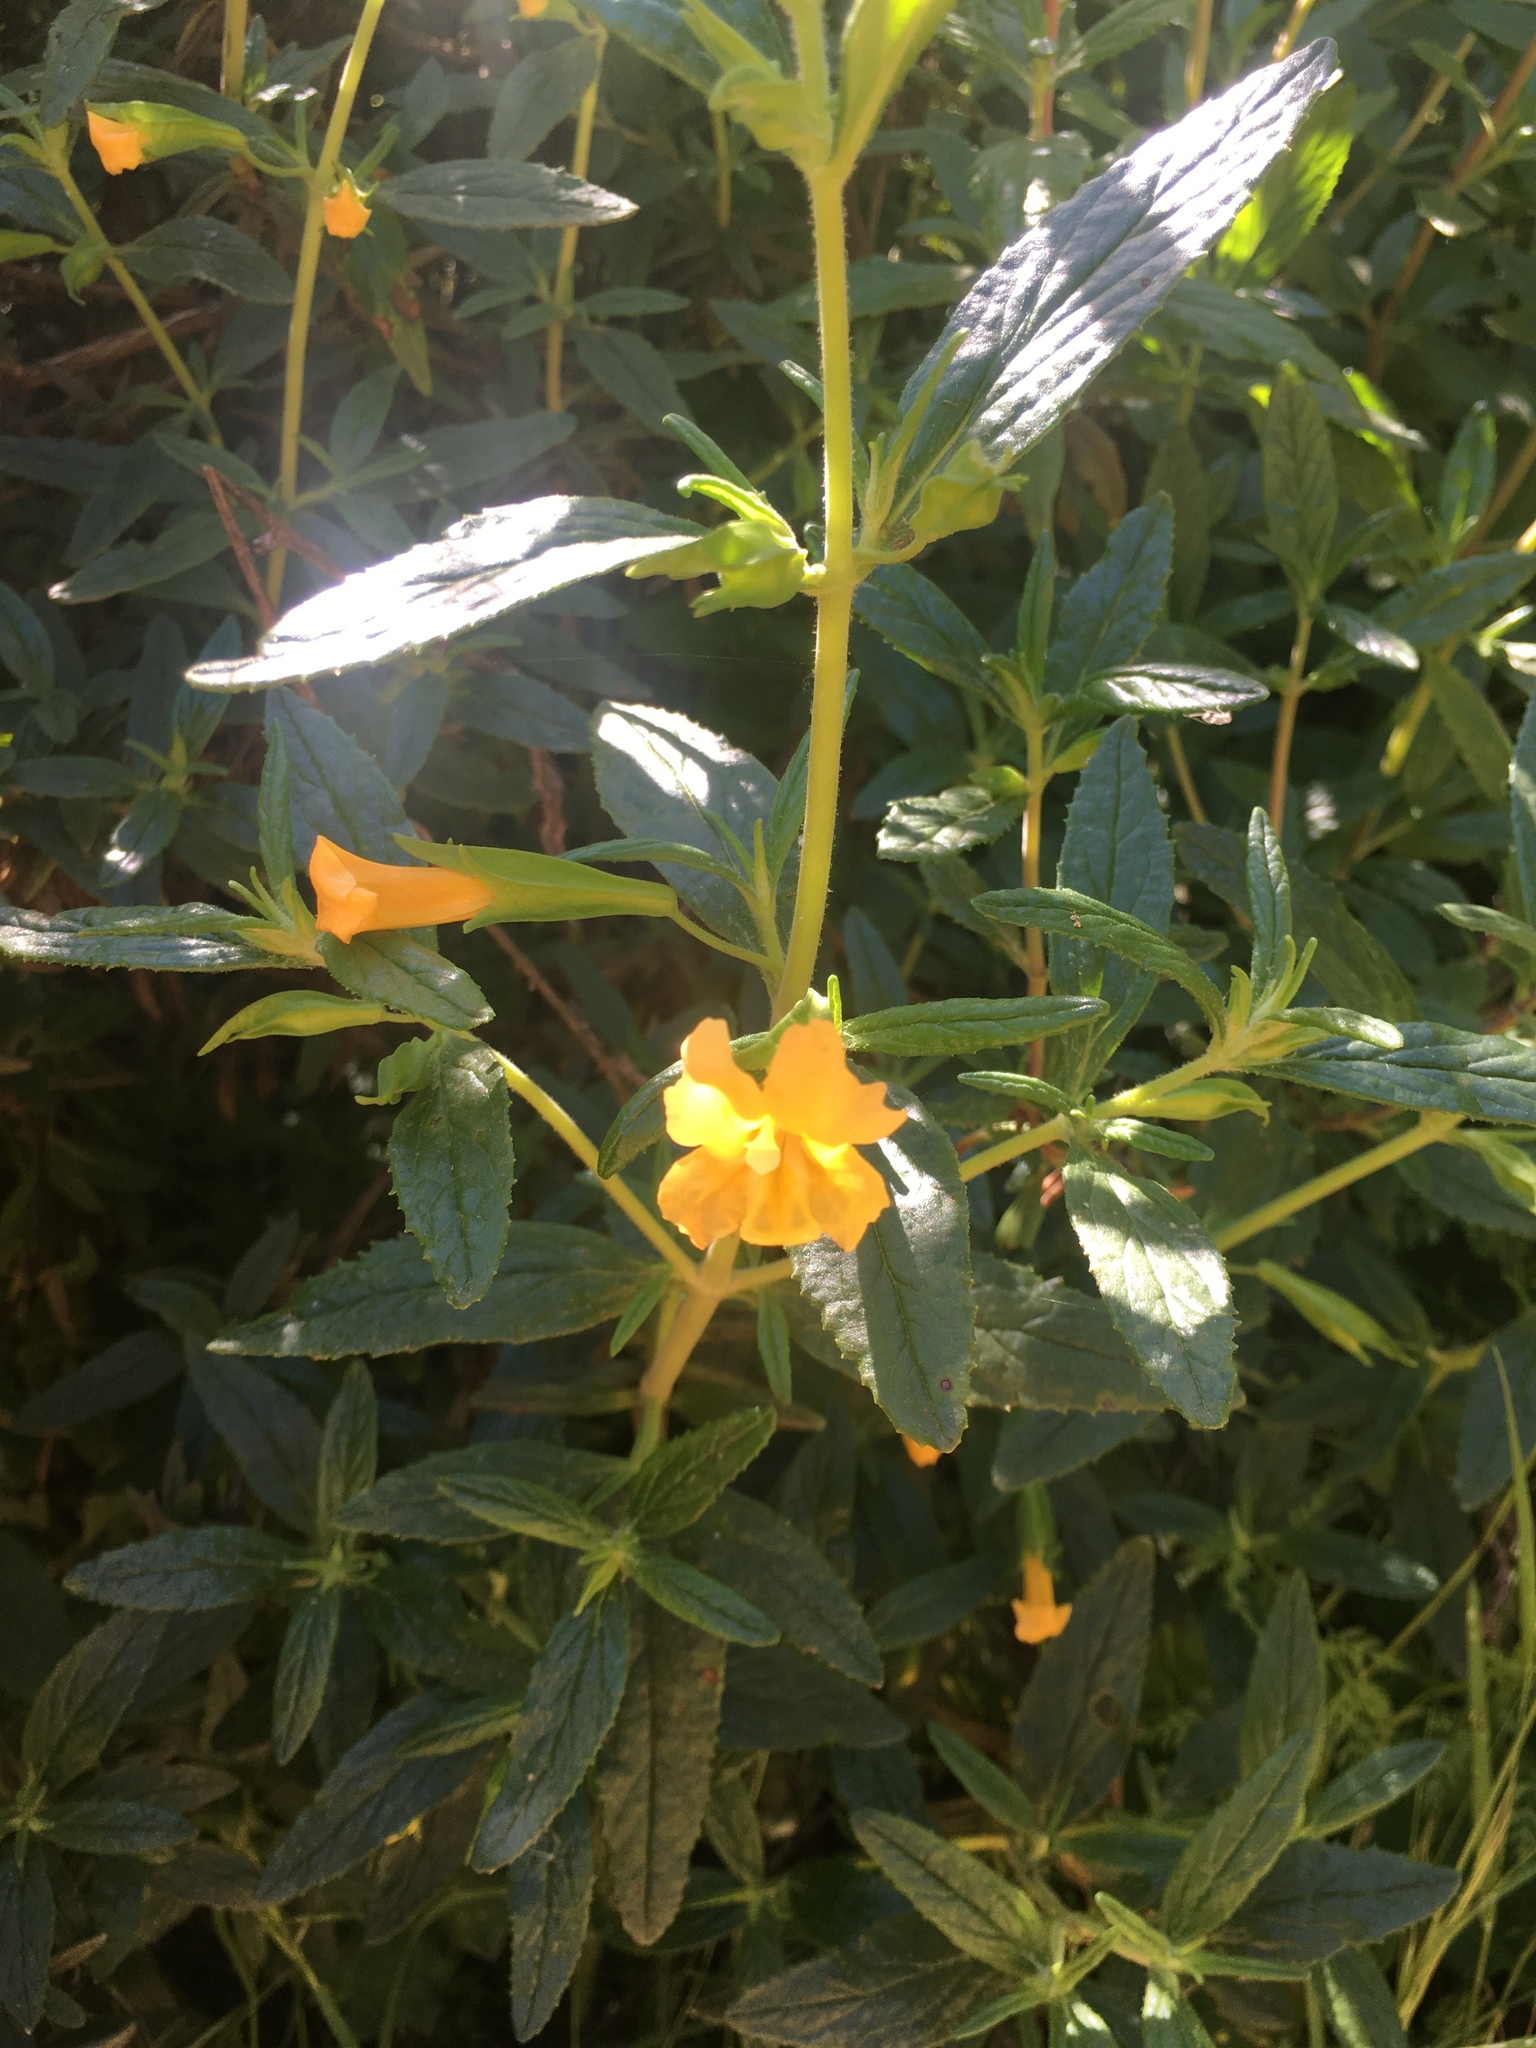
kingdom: Plantae
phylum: Tracheophyta
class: Magnoliopsida
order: Lamiales
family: Phrymaceae
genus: Diplacus
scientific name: Diplacus aurantiacus
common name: Bush monkey-flower
